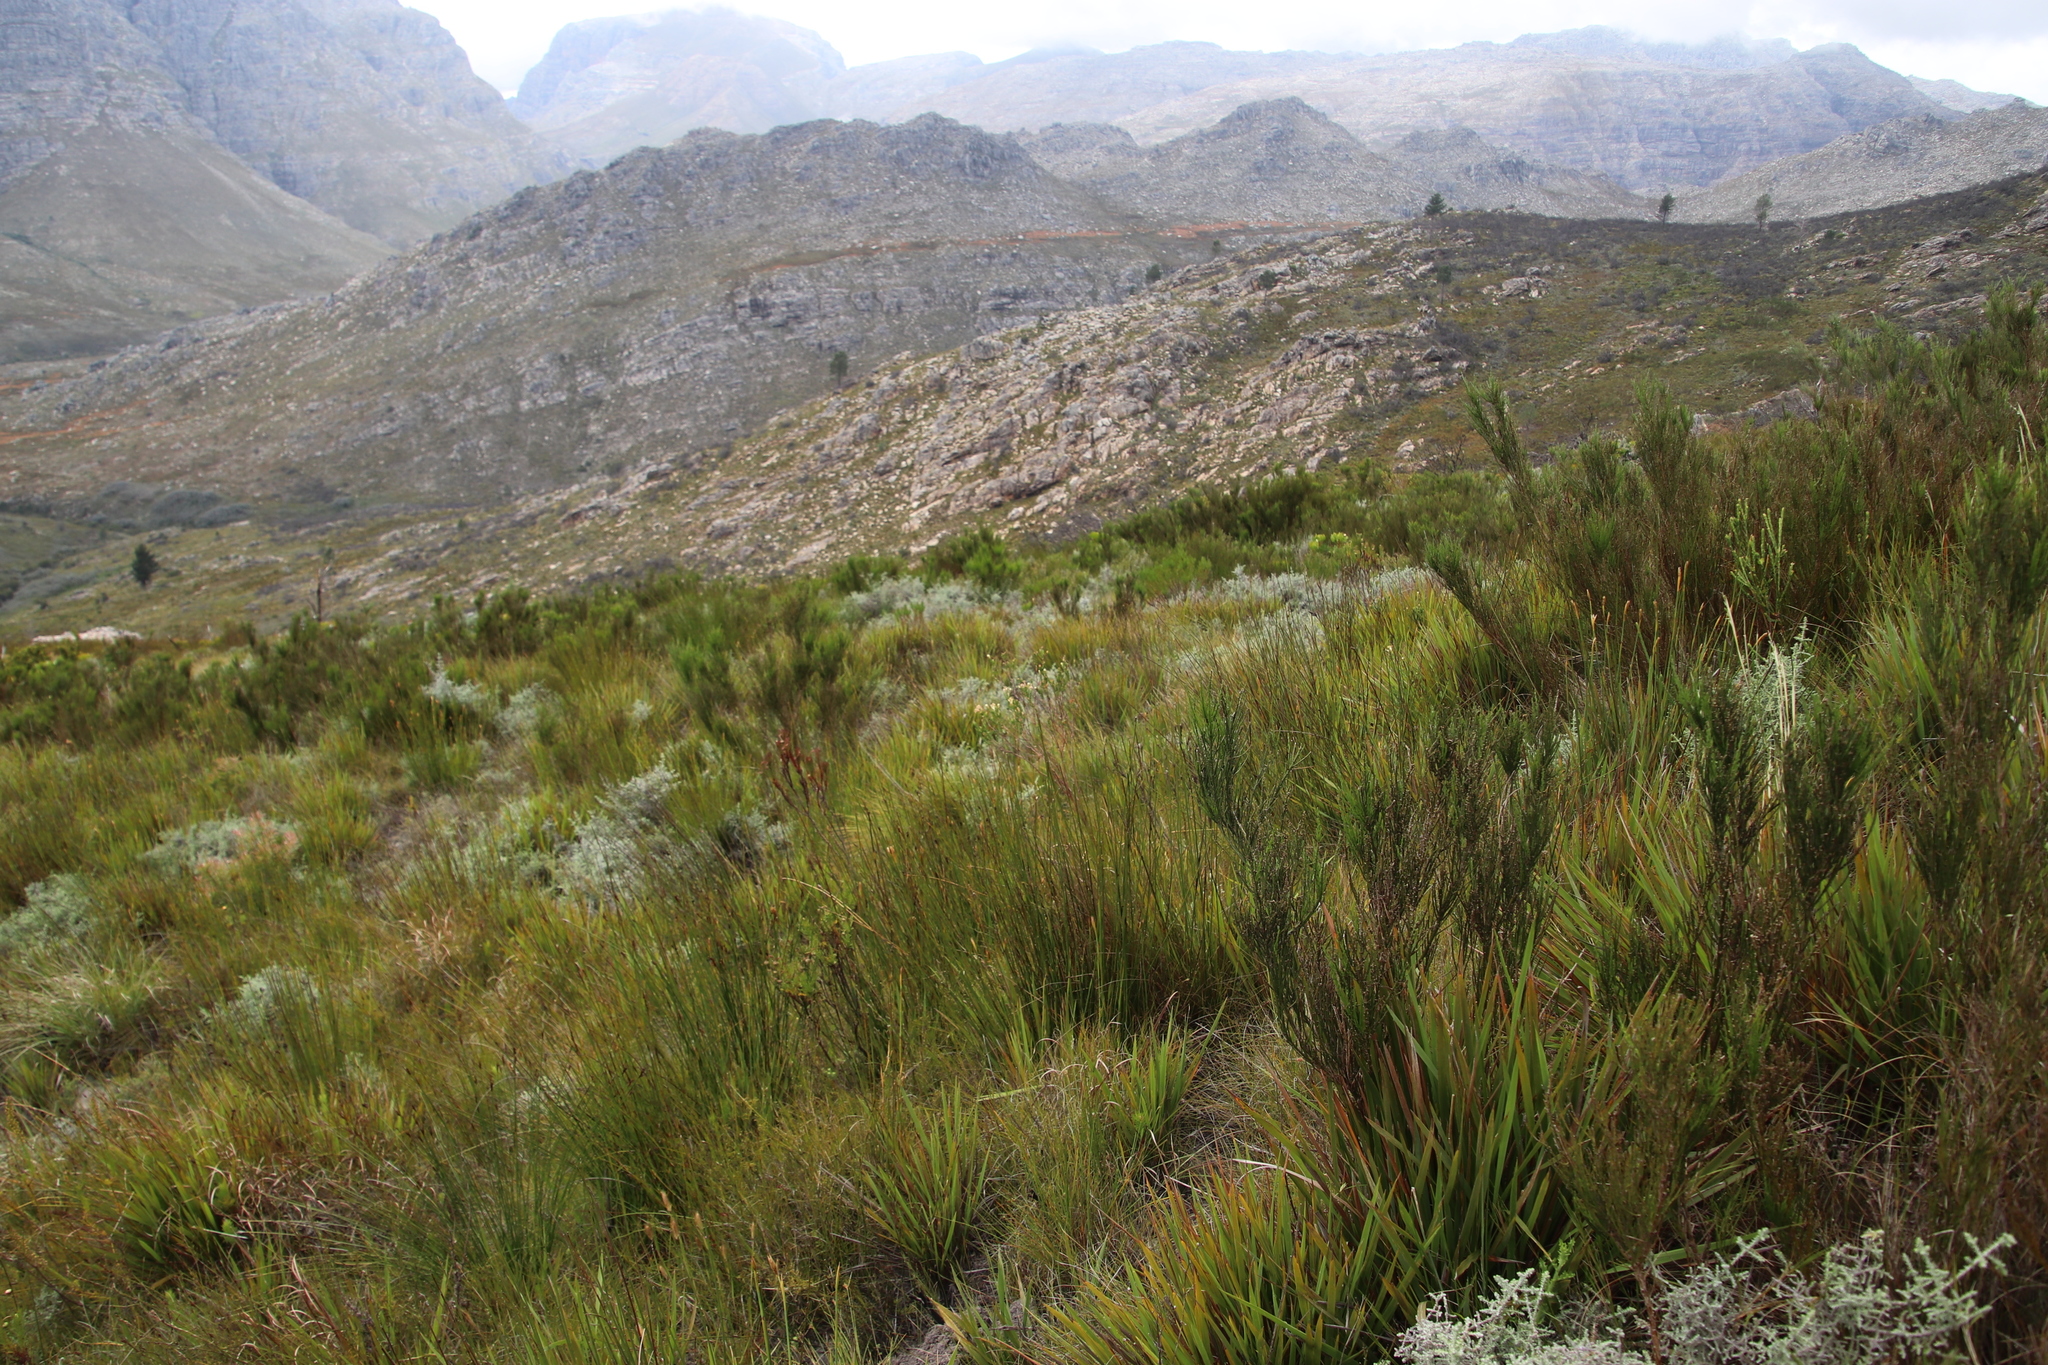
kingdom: Plantae
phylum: Tracheophyta
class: Magnoliopsida
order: Asterales
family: Asteraceae
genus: Seriphium
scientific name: Seriphium cinereum
